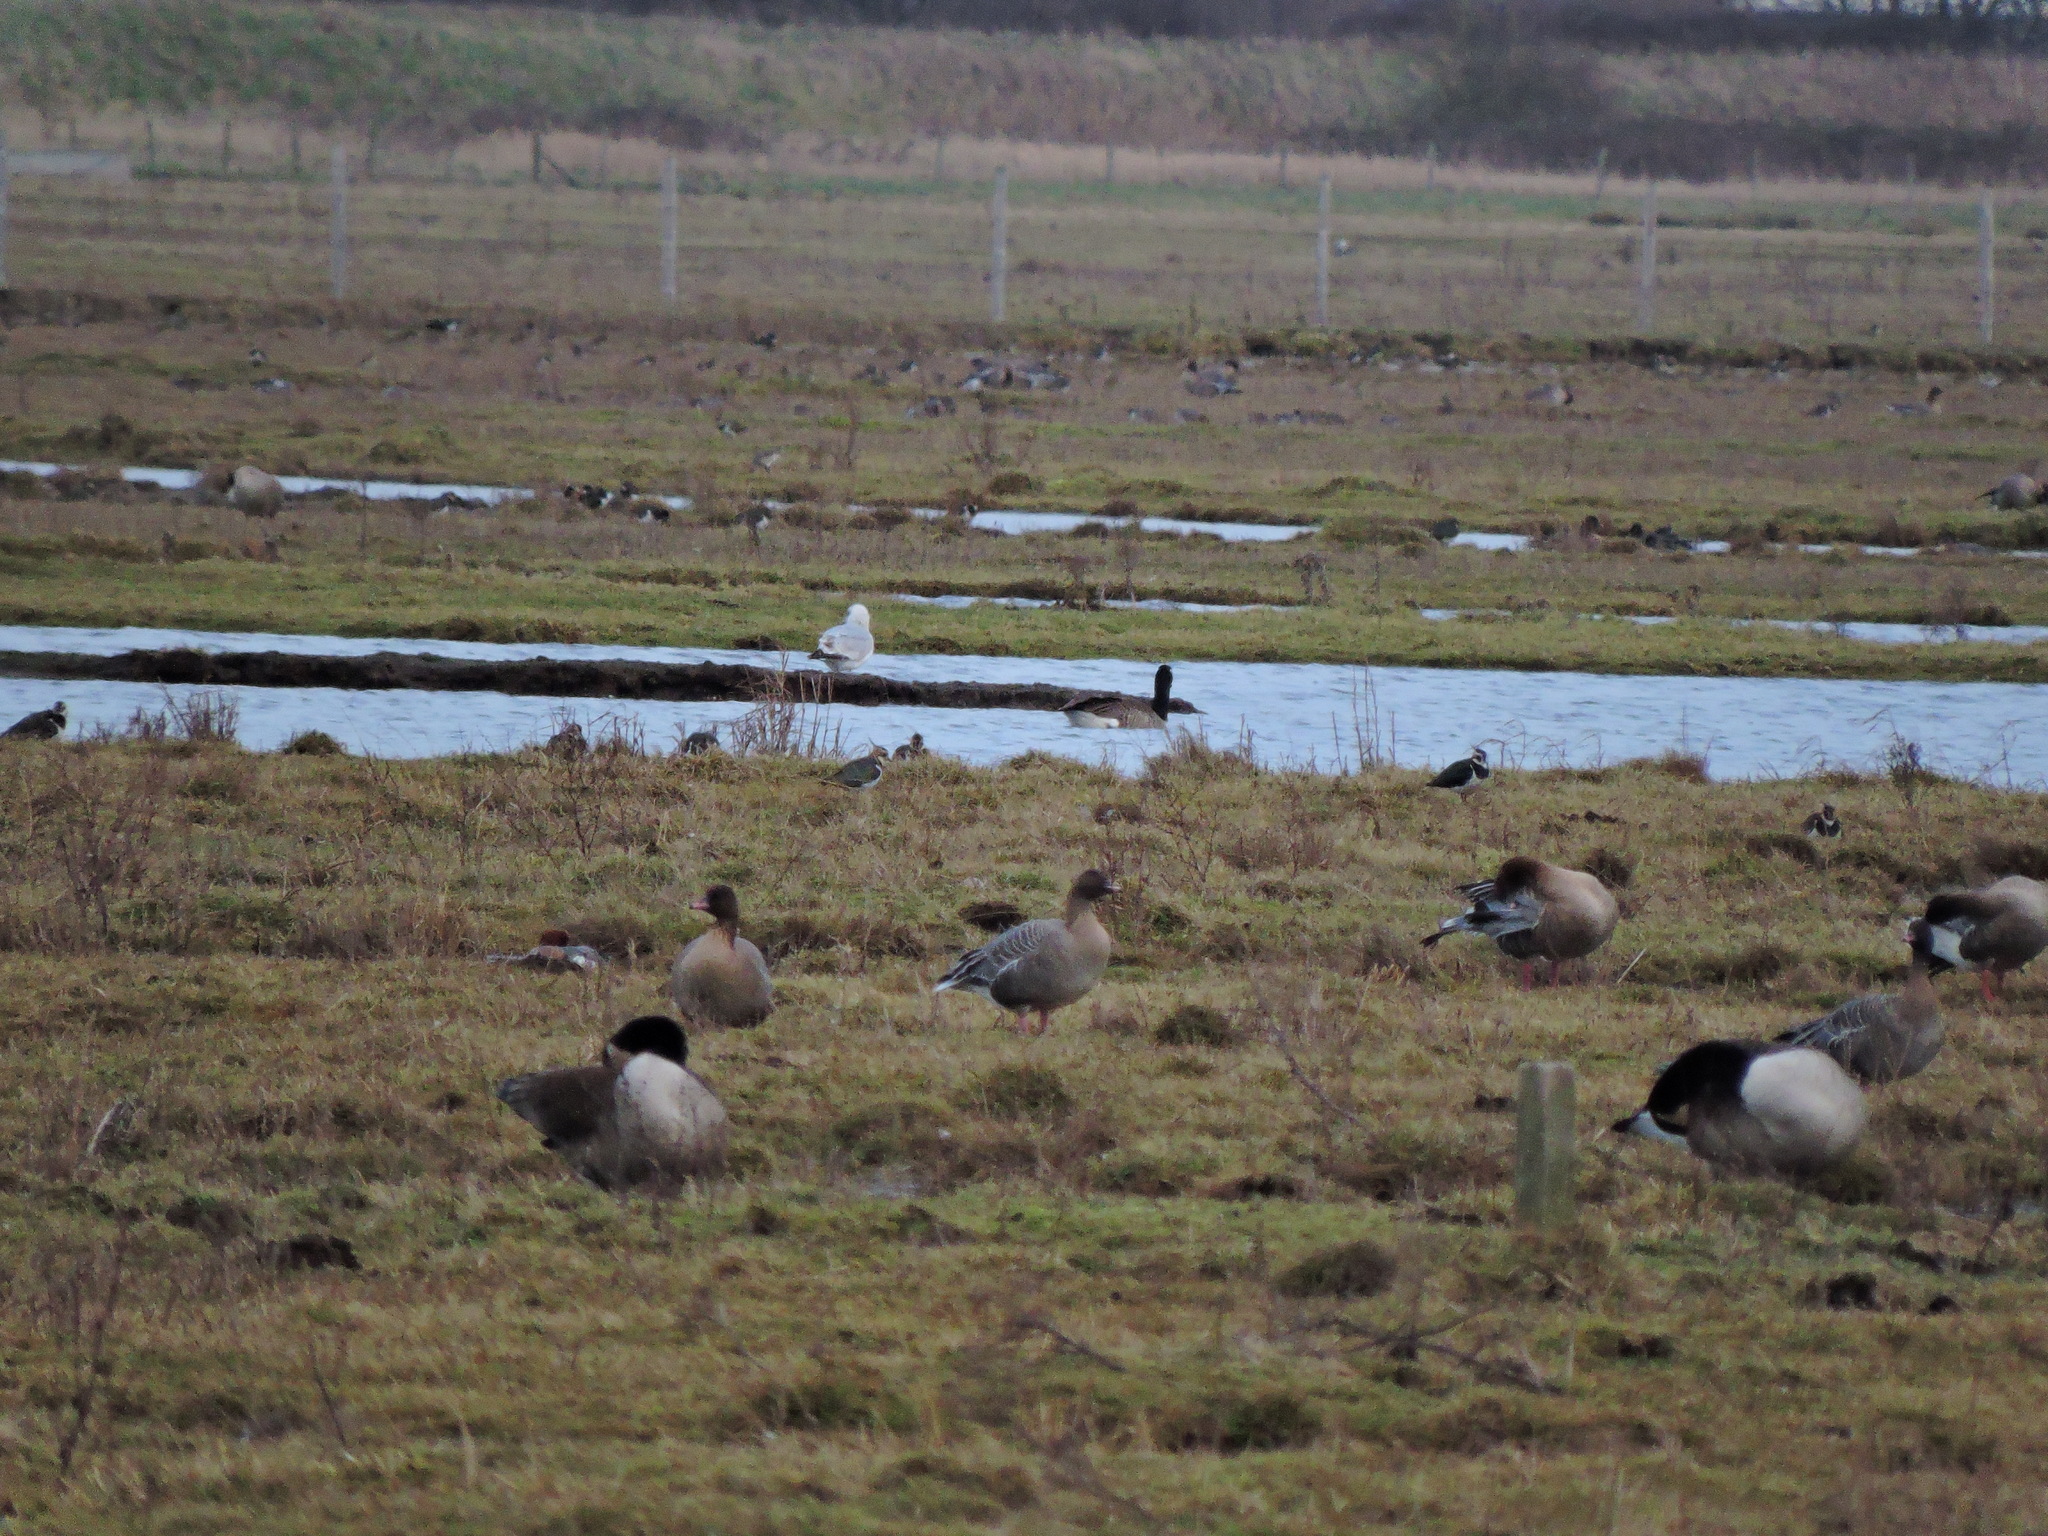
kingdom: Animalia
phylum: Chordata
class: Aves
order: Anseriformes
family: Anatidae
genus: Anser
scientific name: Anser brachyrhynchus
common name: Pink-footed goose
